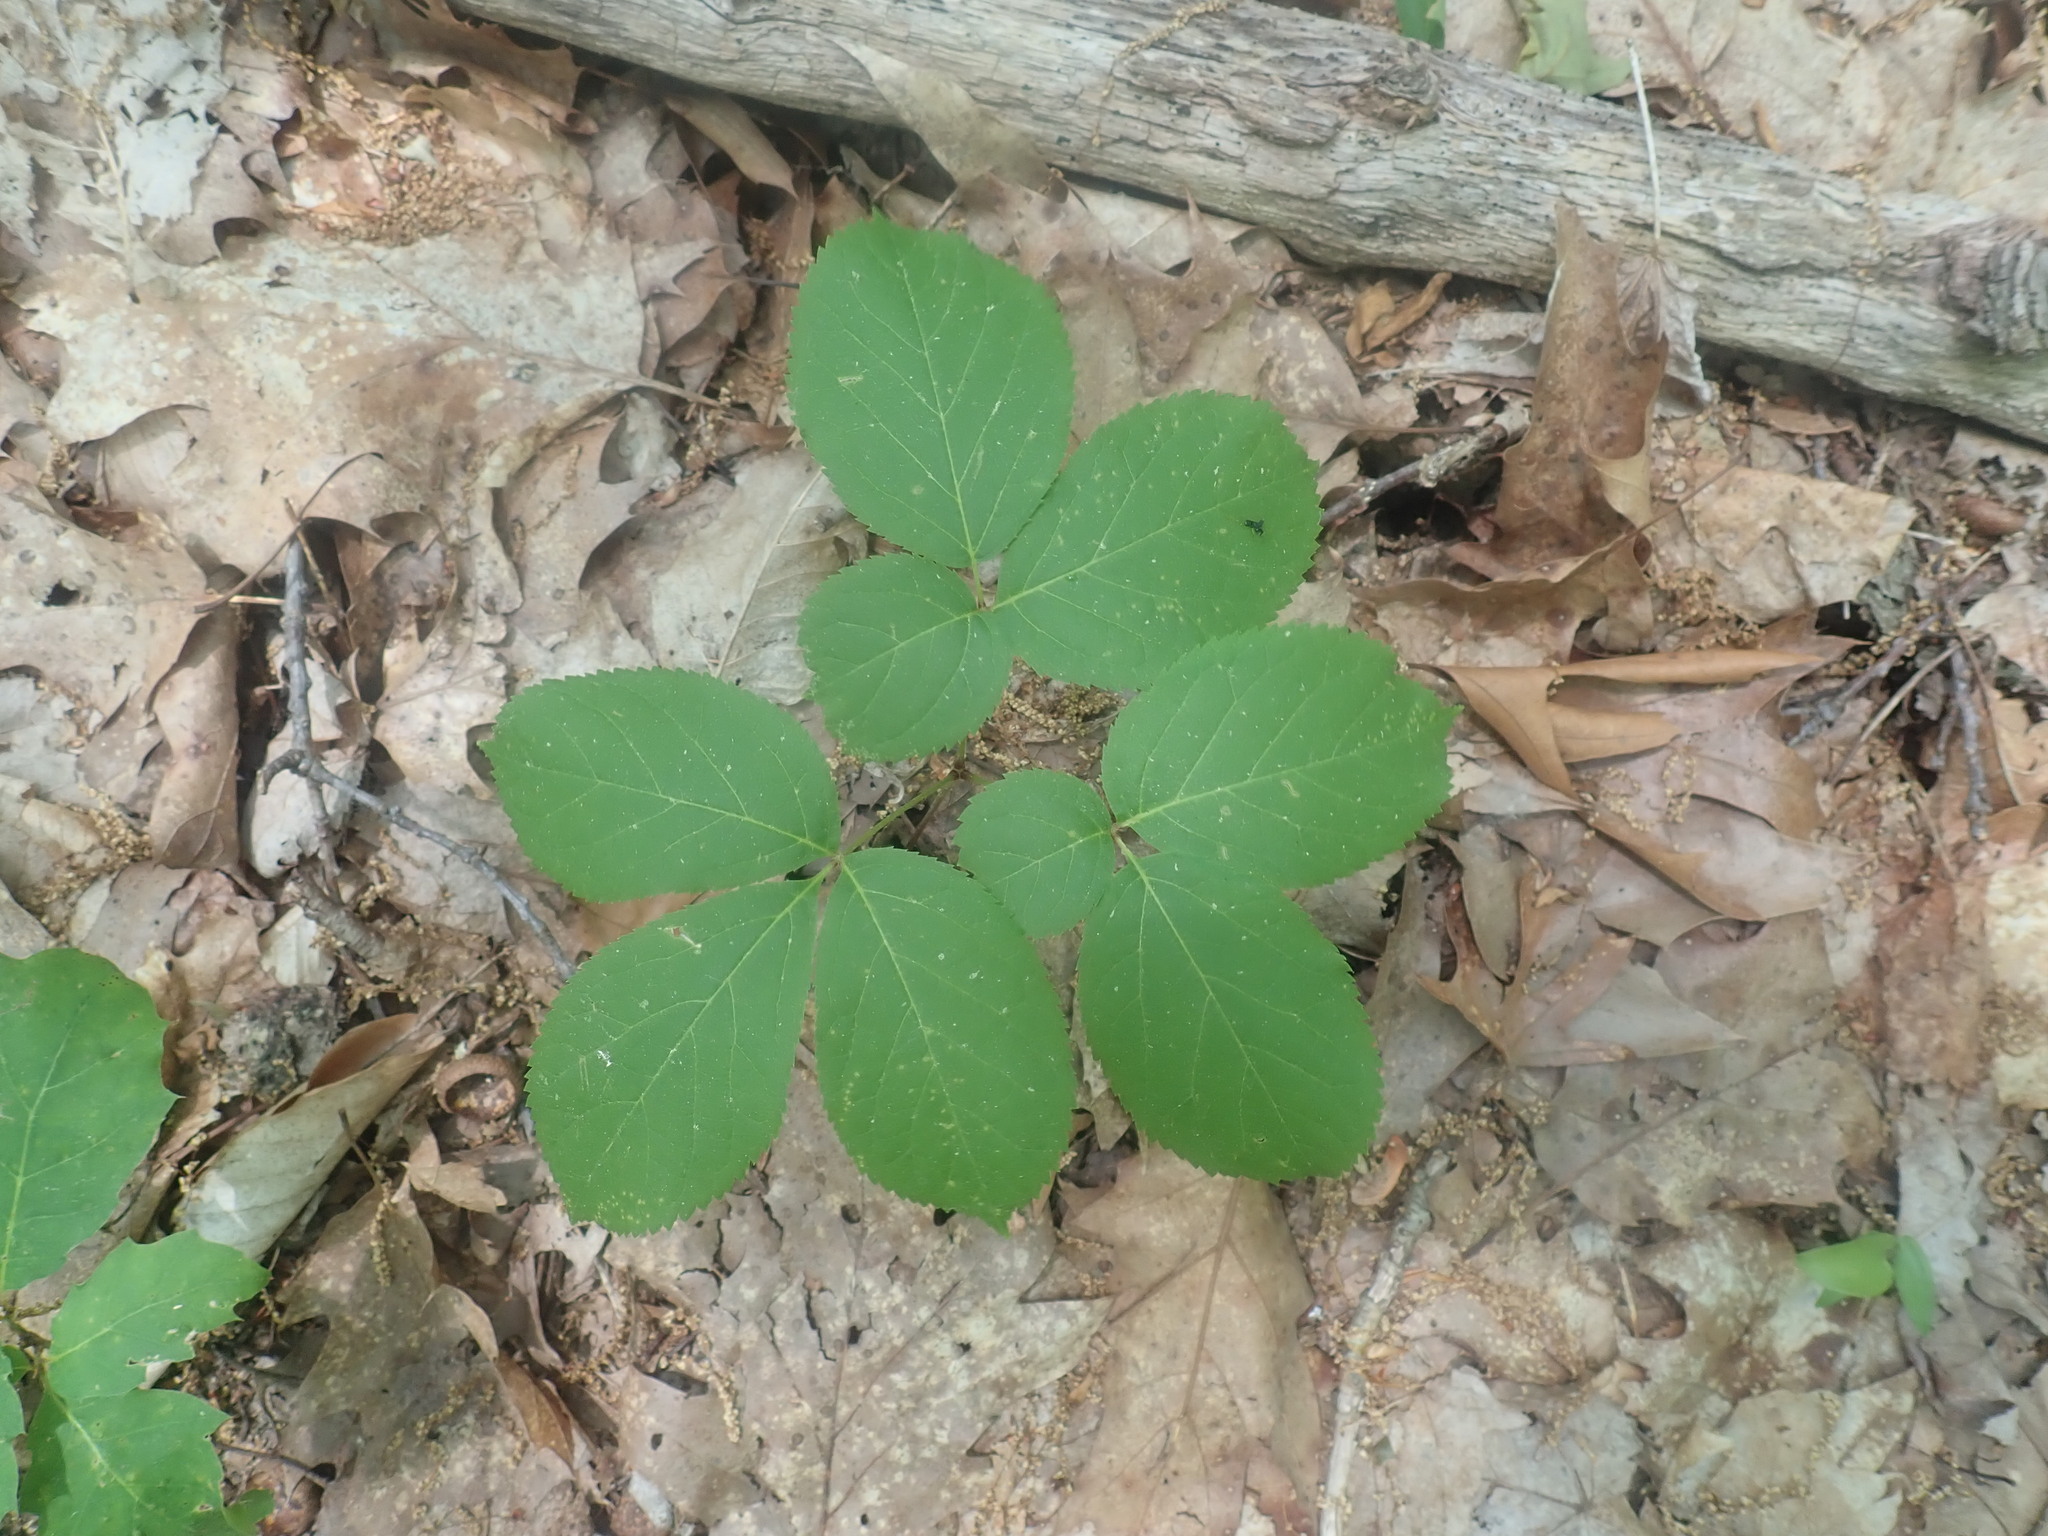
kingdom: Plantae
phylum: Tracheophyta
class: Magnoliopsida
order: Apiales
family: Araliaceae
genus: Aralia
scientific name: Aralia nudicaulis
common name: Wild sarsaparilla
